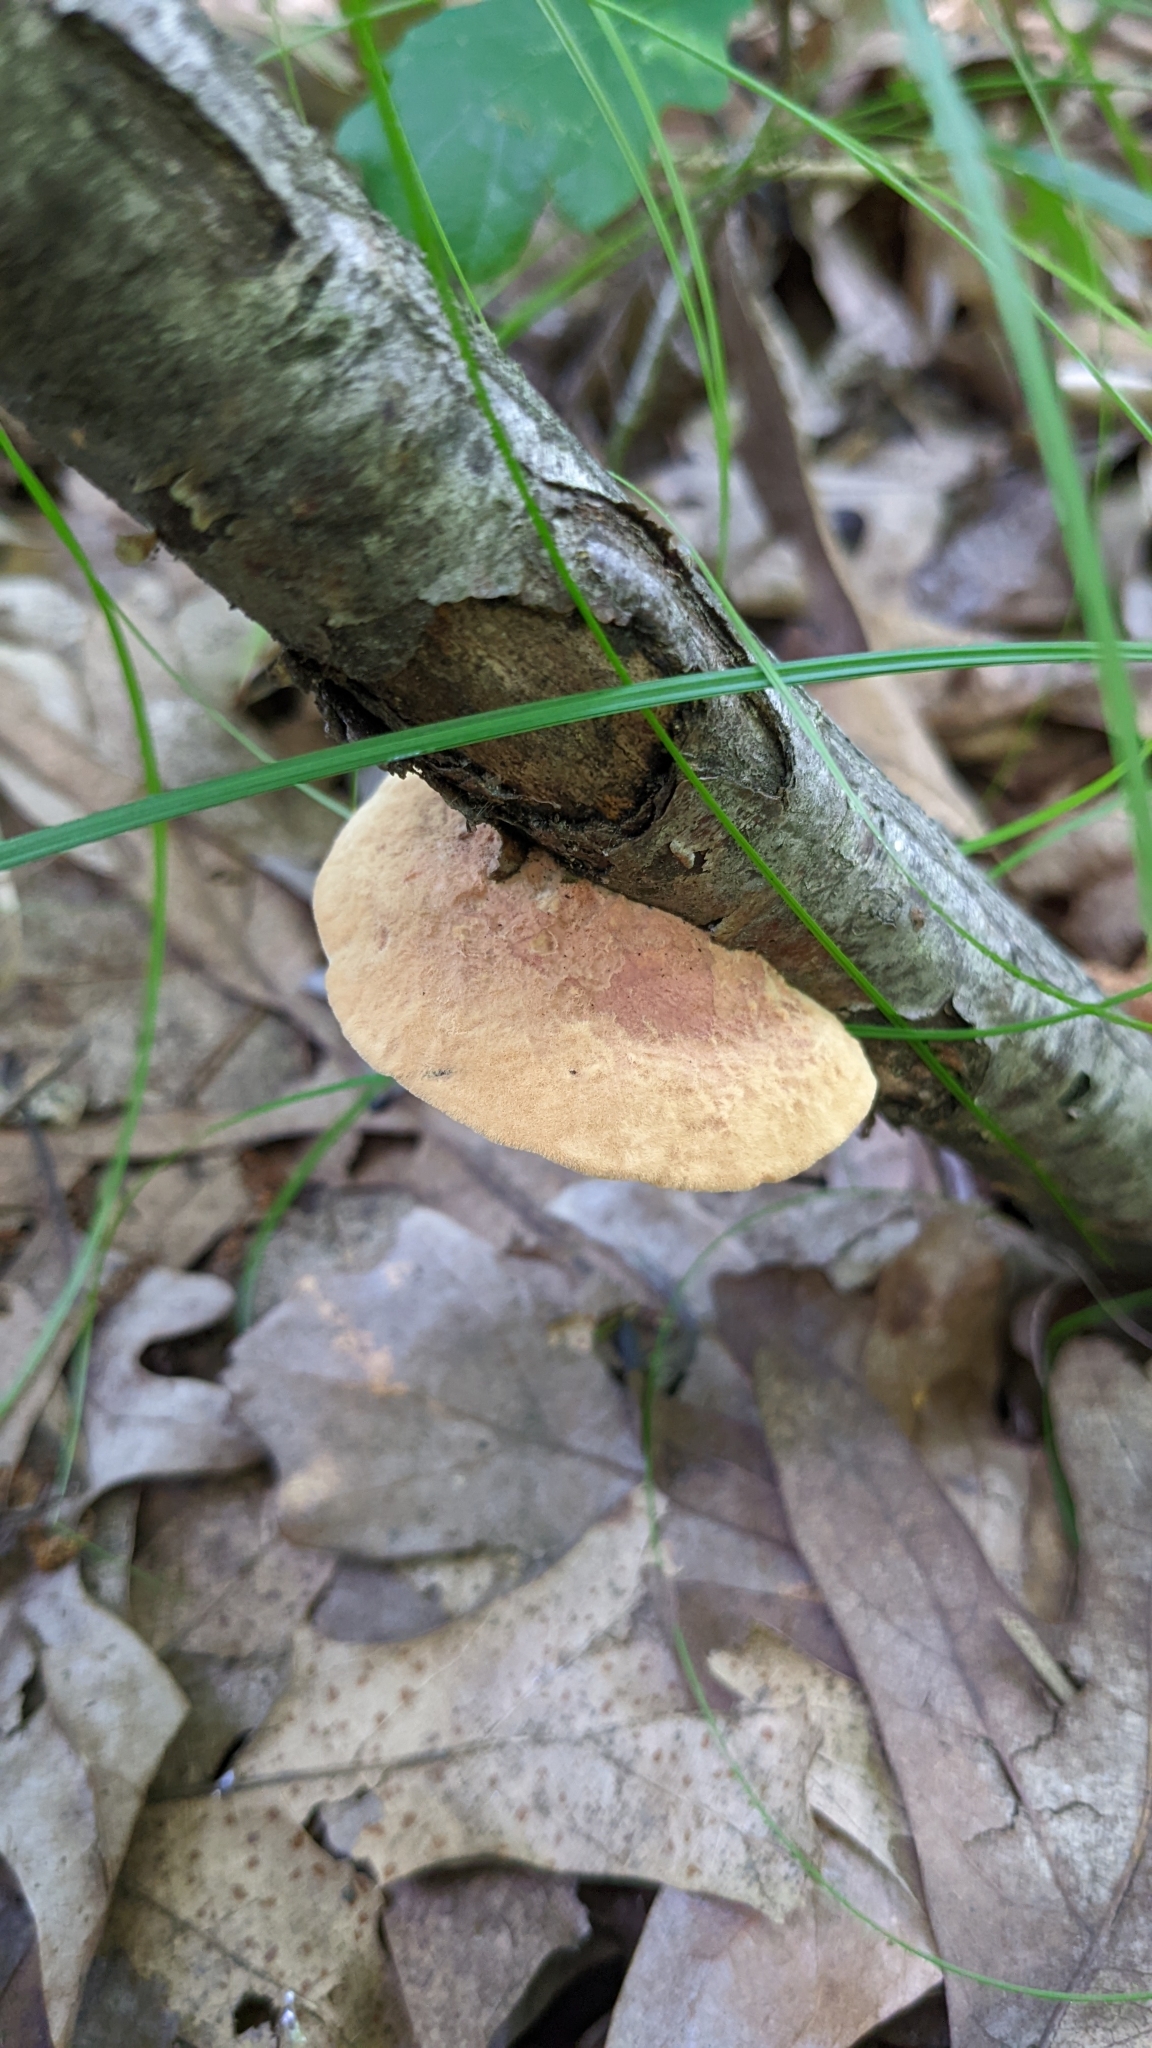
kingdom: Fungi
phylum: Basidiomycota
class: Agaricomycetes
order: Polyporales
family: Phanerochaetaceae
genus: Hapalopilus
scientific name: Hapalopilus rutilans
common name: Tender nesting polypore
